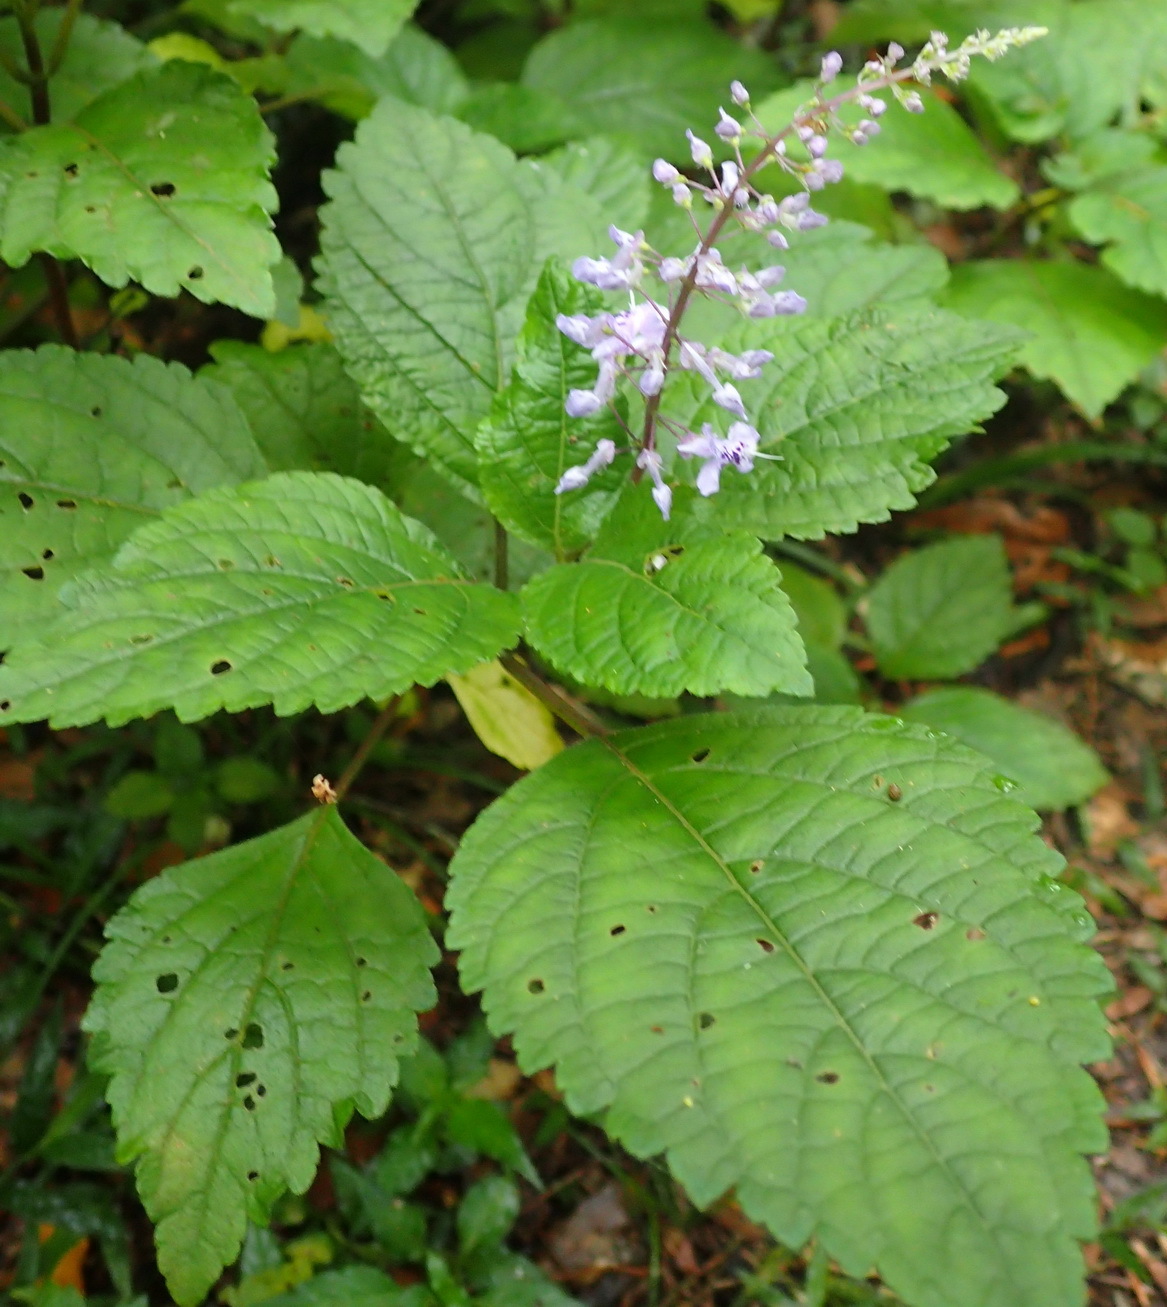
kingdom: Plantae
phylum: Tracheophyta
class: Magnoliopsida
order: Lamiales
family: Lamiaceae
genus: Plectranthus
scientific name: Plectranthus fruticosus
